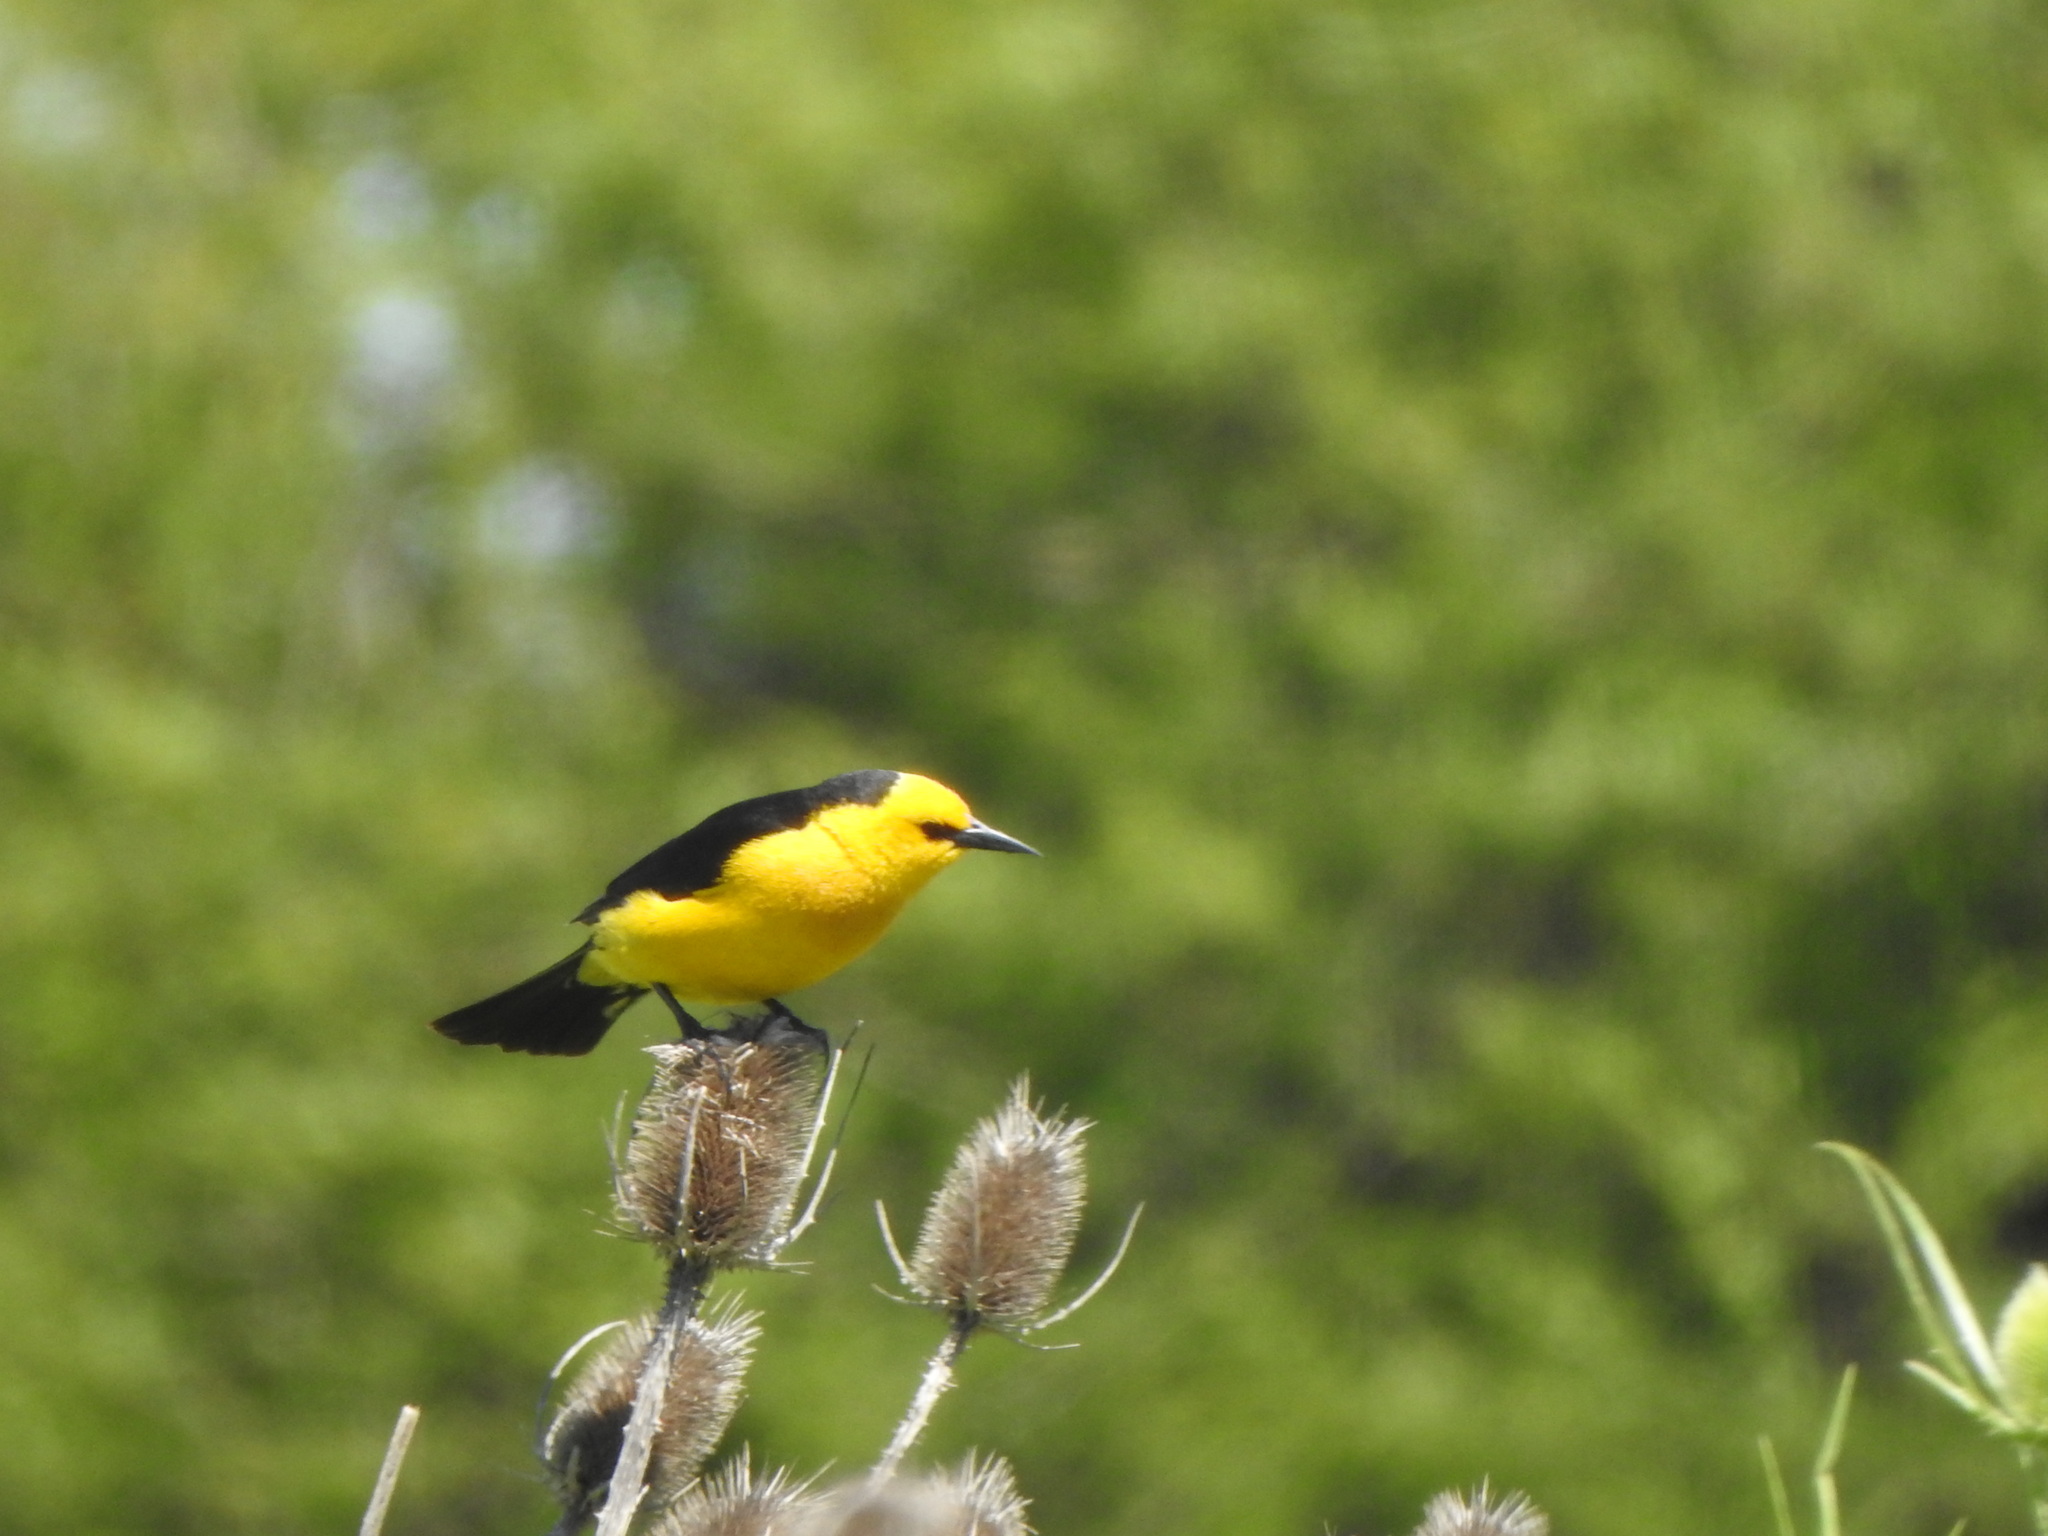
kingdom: Animalia
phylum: Chordata
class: Aves
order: Passeriformes
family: Icteridae
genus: Xanthopsar
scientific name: Xanthopsar flavus
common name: Saffron-cowled blackbird
